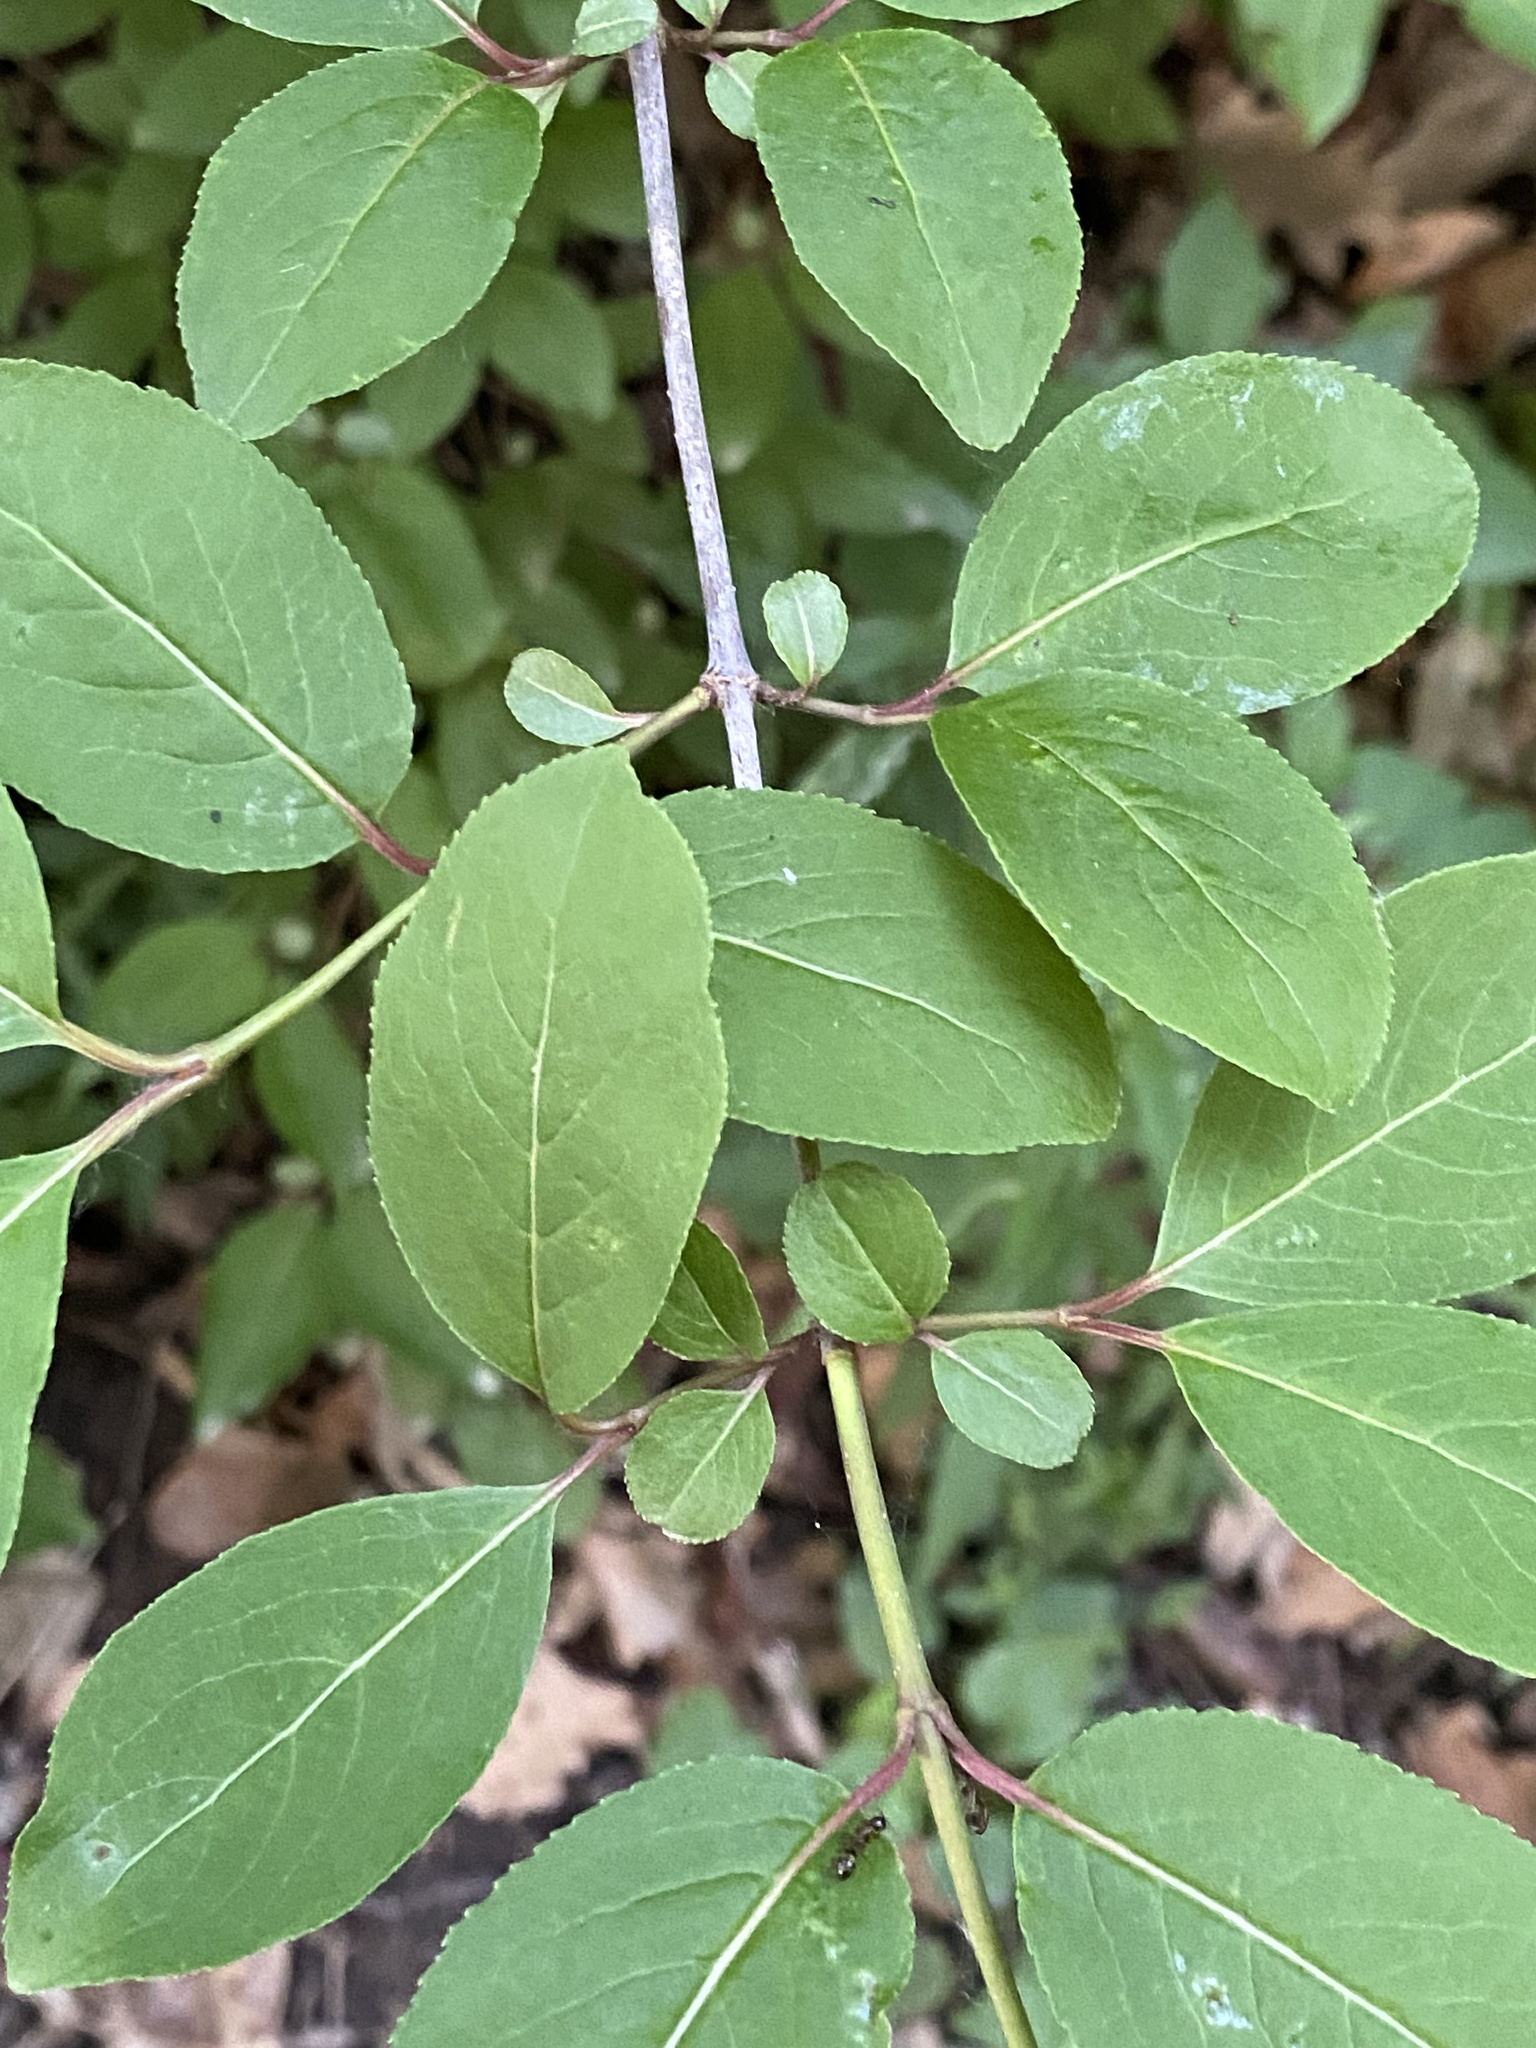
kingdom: Plantae
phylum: Tracheophyta
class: Magnoliopsida
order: Dipsacales
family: Viburnaceae
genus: Viburnum
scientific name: Viburnum prunifolium
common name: Black haw
